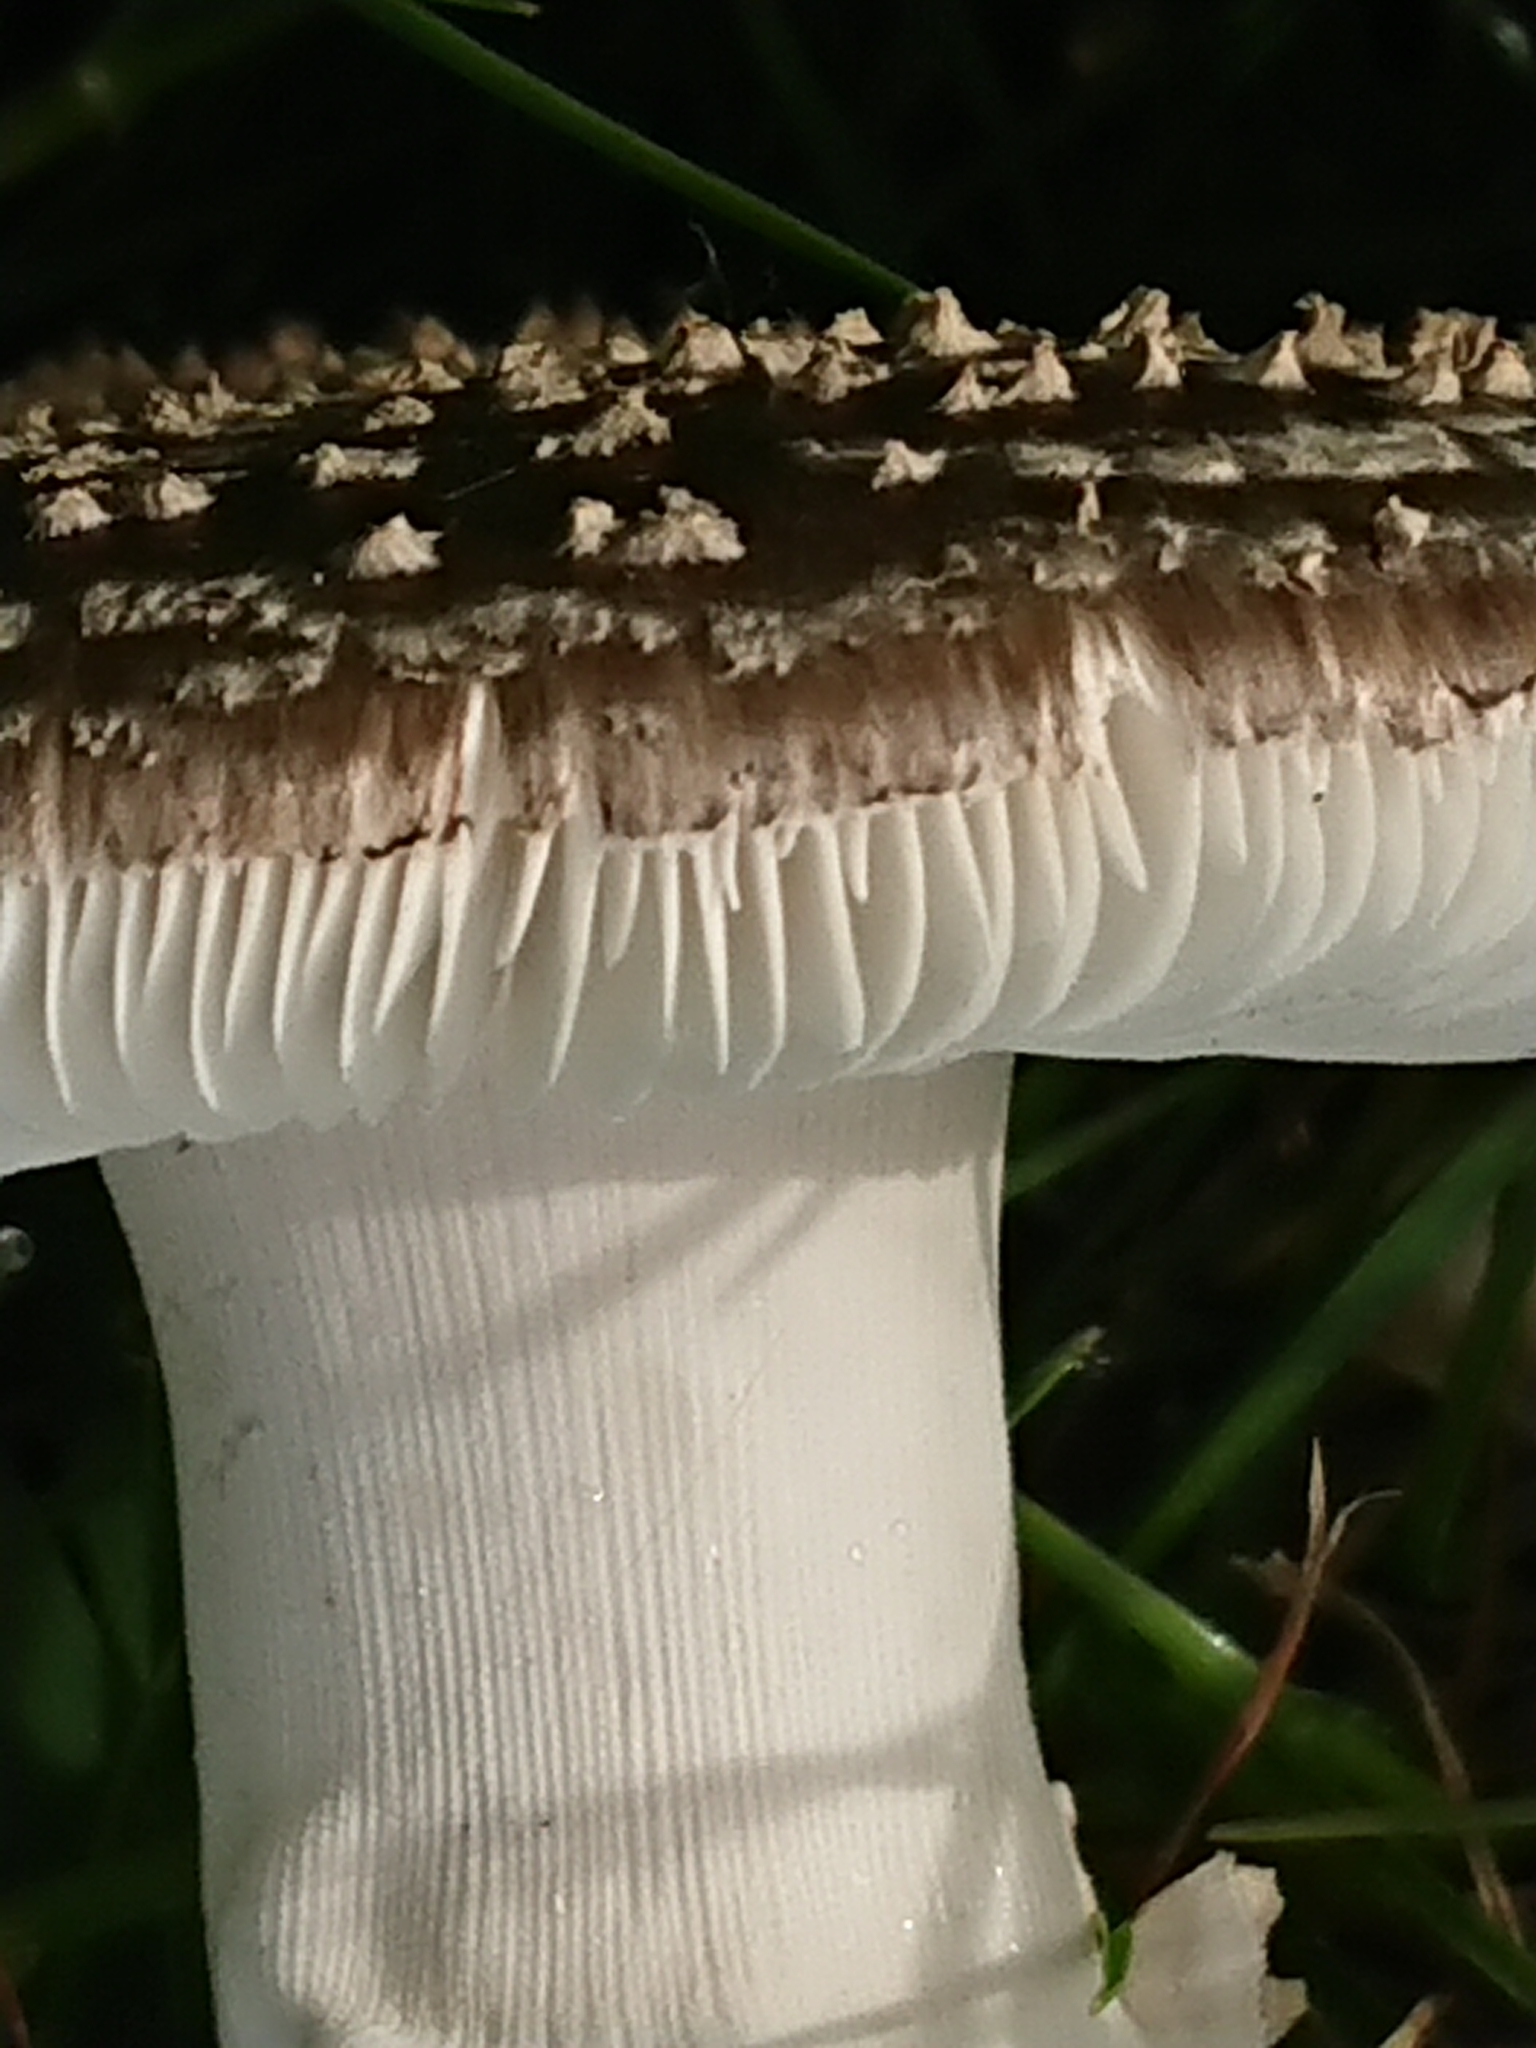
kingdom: Fungi
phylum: Basidiomycota
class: Agaricomycetes
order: Agaricales
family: Amanitaceae
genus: Amanita
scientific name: Amanita excelsa
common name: European false blusher
